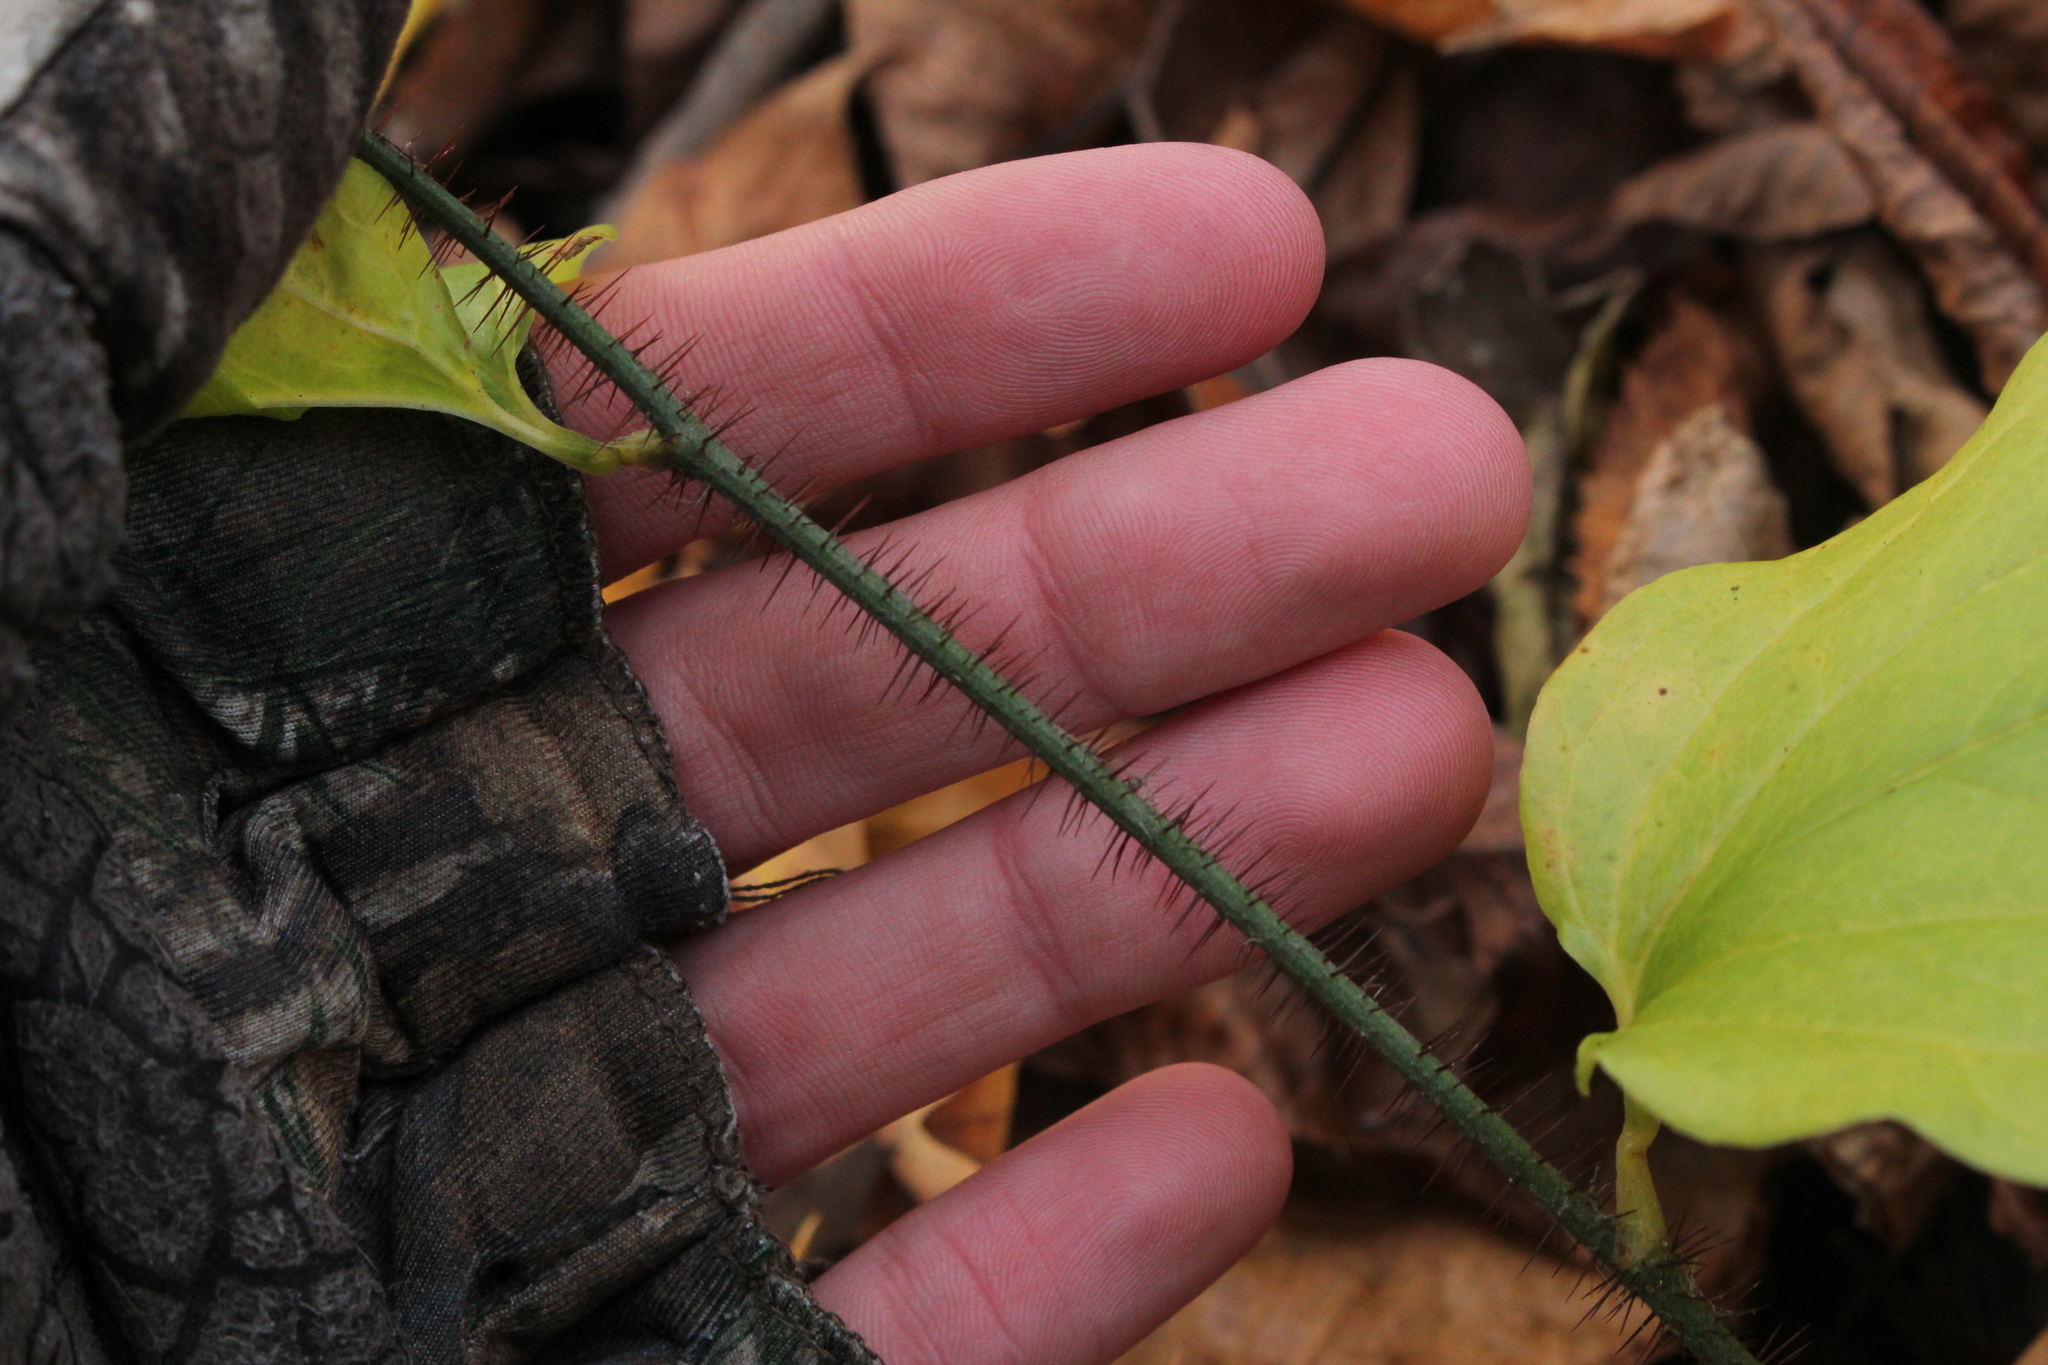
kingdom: Plantae
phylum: Tracheophyta
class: Liliopsida
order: Liliales
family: Smilacaceae
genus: Smilax
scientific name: Smilax tamnoides
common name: Hellfetter
